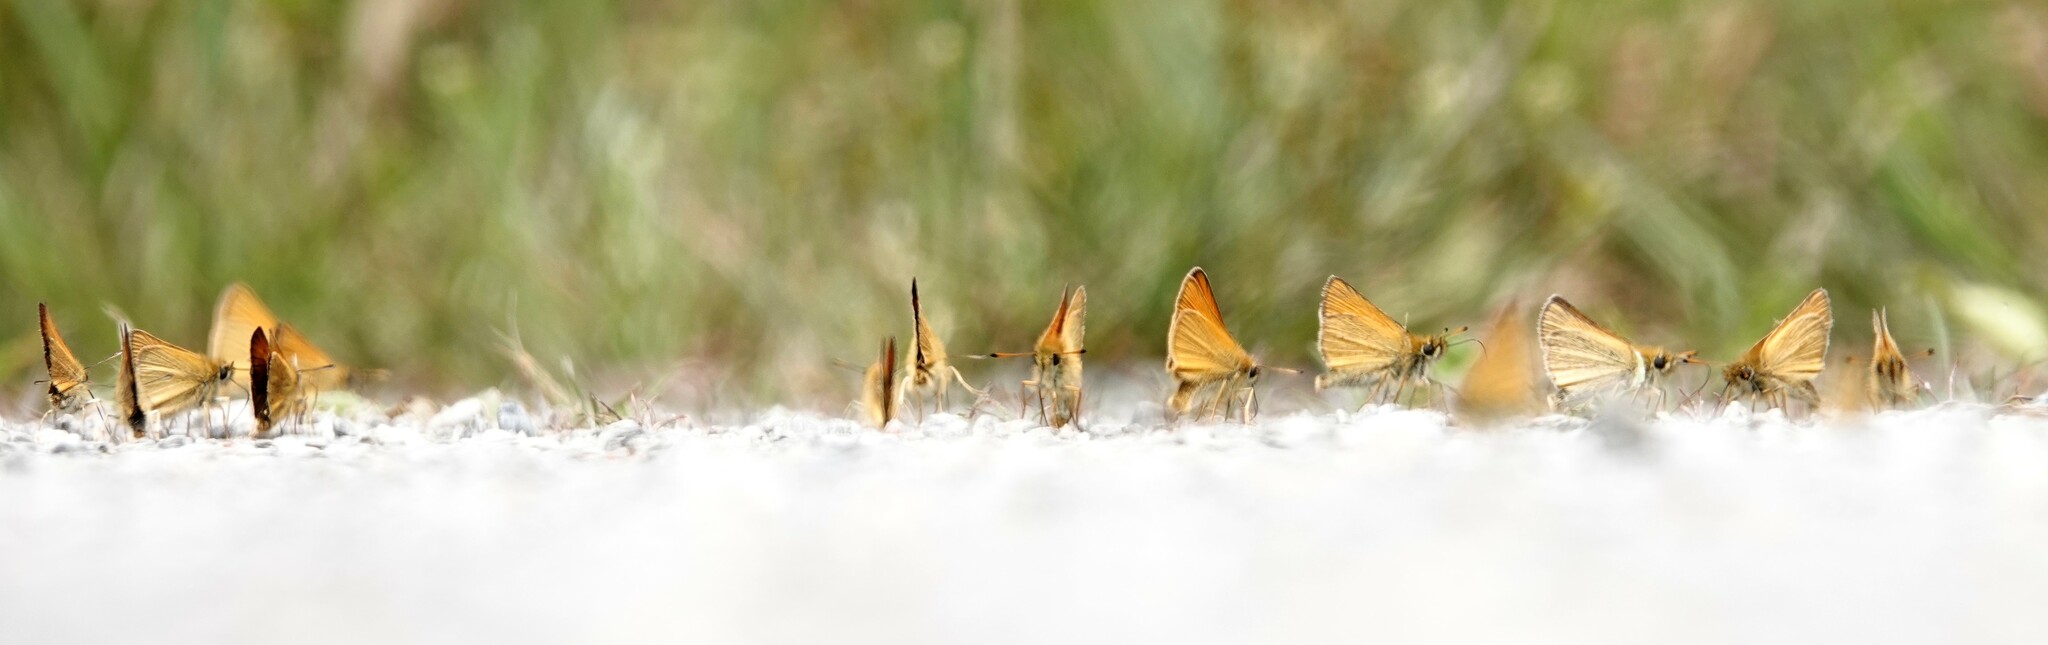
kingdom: Animalia
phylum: Arthropoda
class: Insecta
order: Lepidoptera
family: Hesperiidae
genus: Thymelicus
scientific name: Thymelicus lineola
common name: Essex skipper
